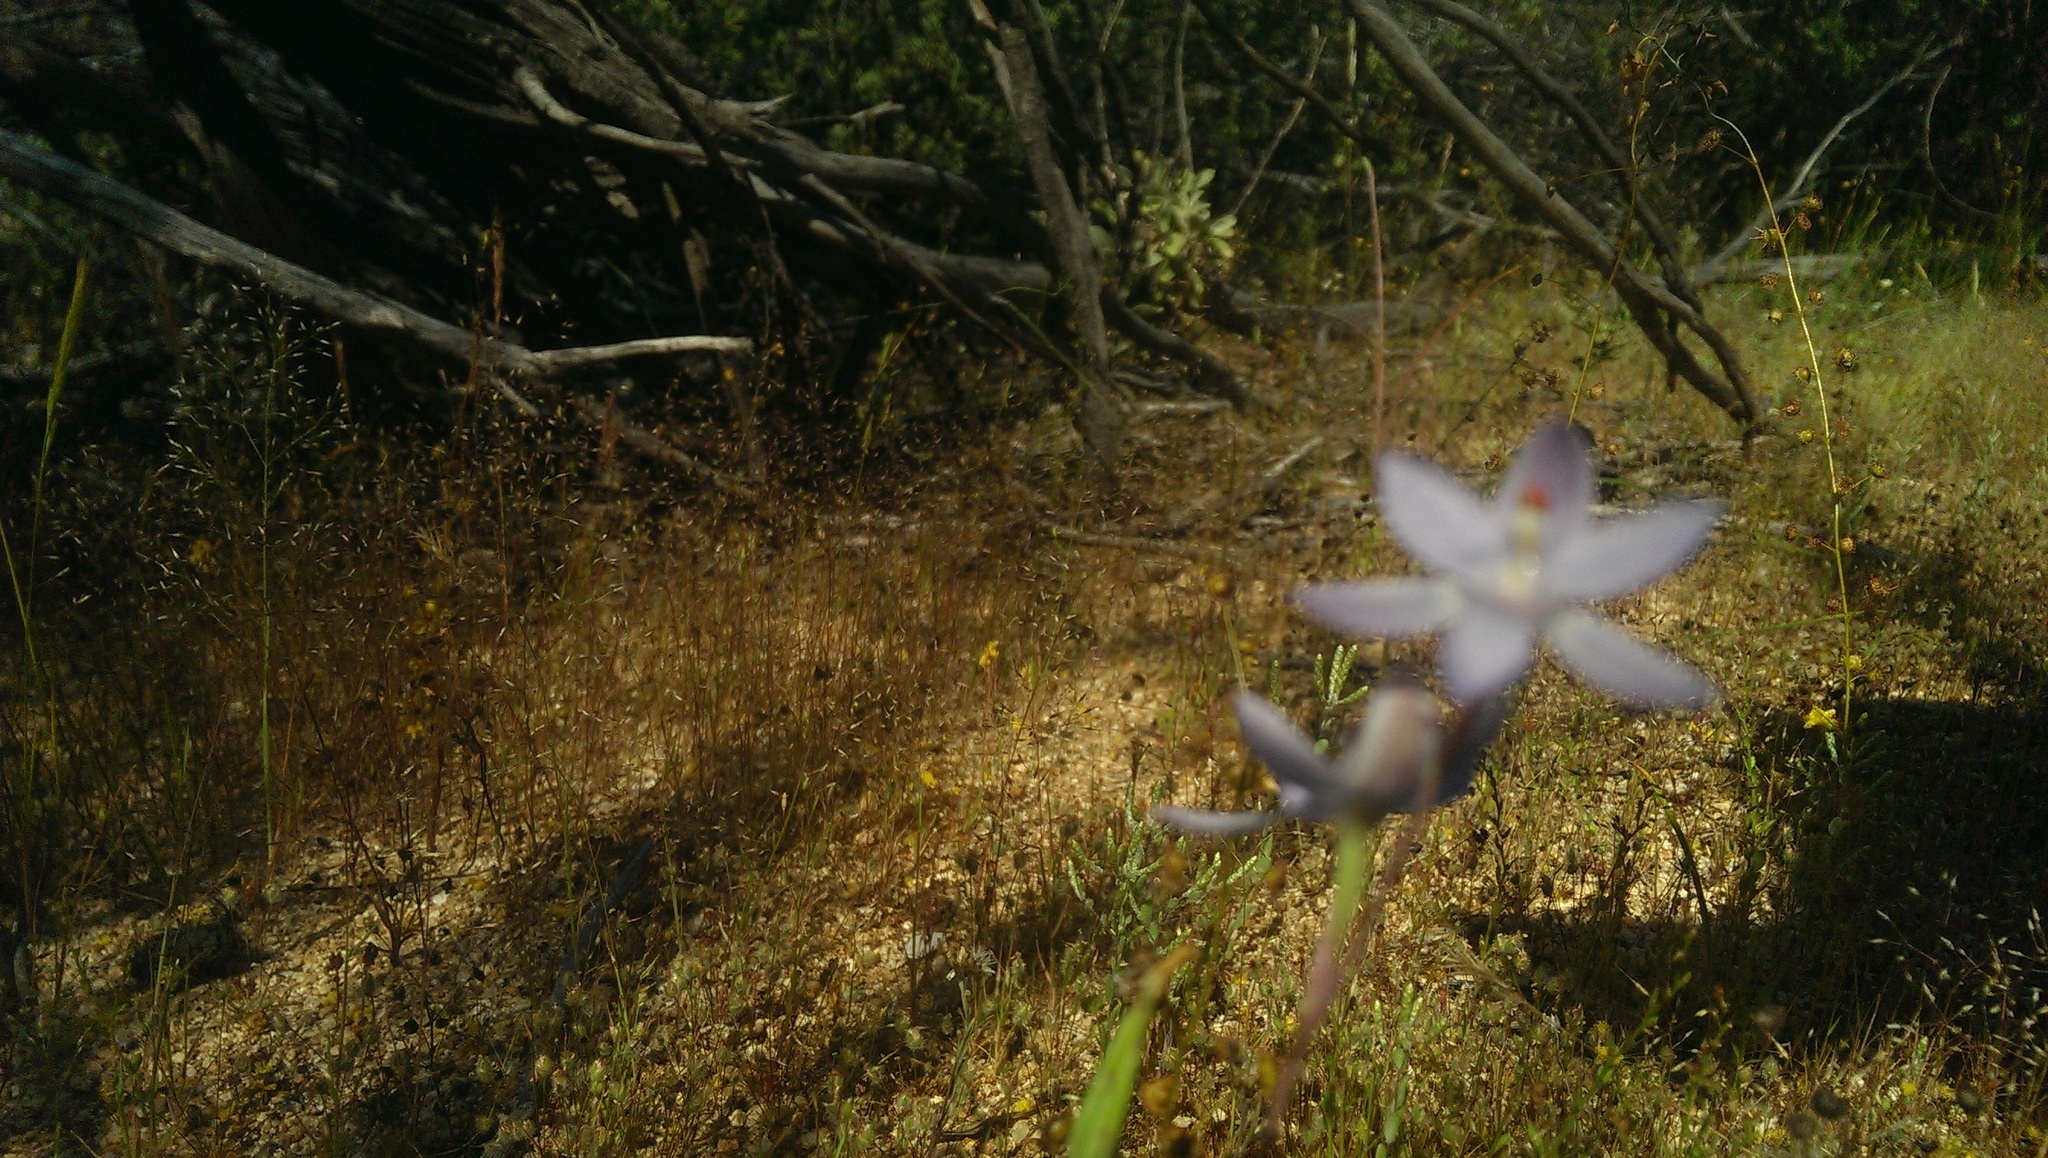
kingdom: Plantae
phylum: Tracheophyta
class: Liliopsida
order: Asparagales
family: Orchidaceae
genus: Thelymitra
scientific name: Thelymitra petrophila
